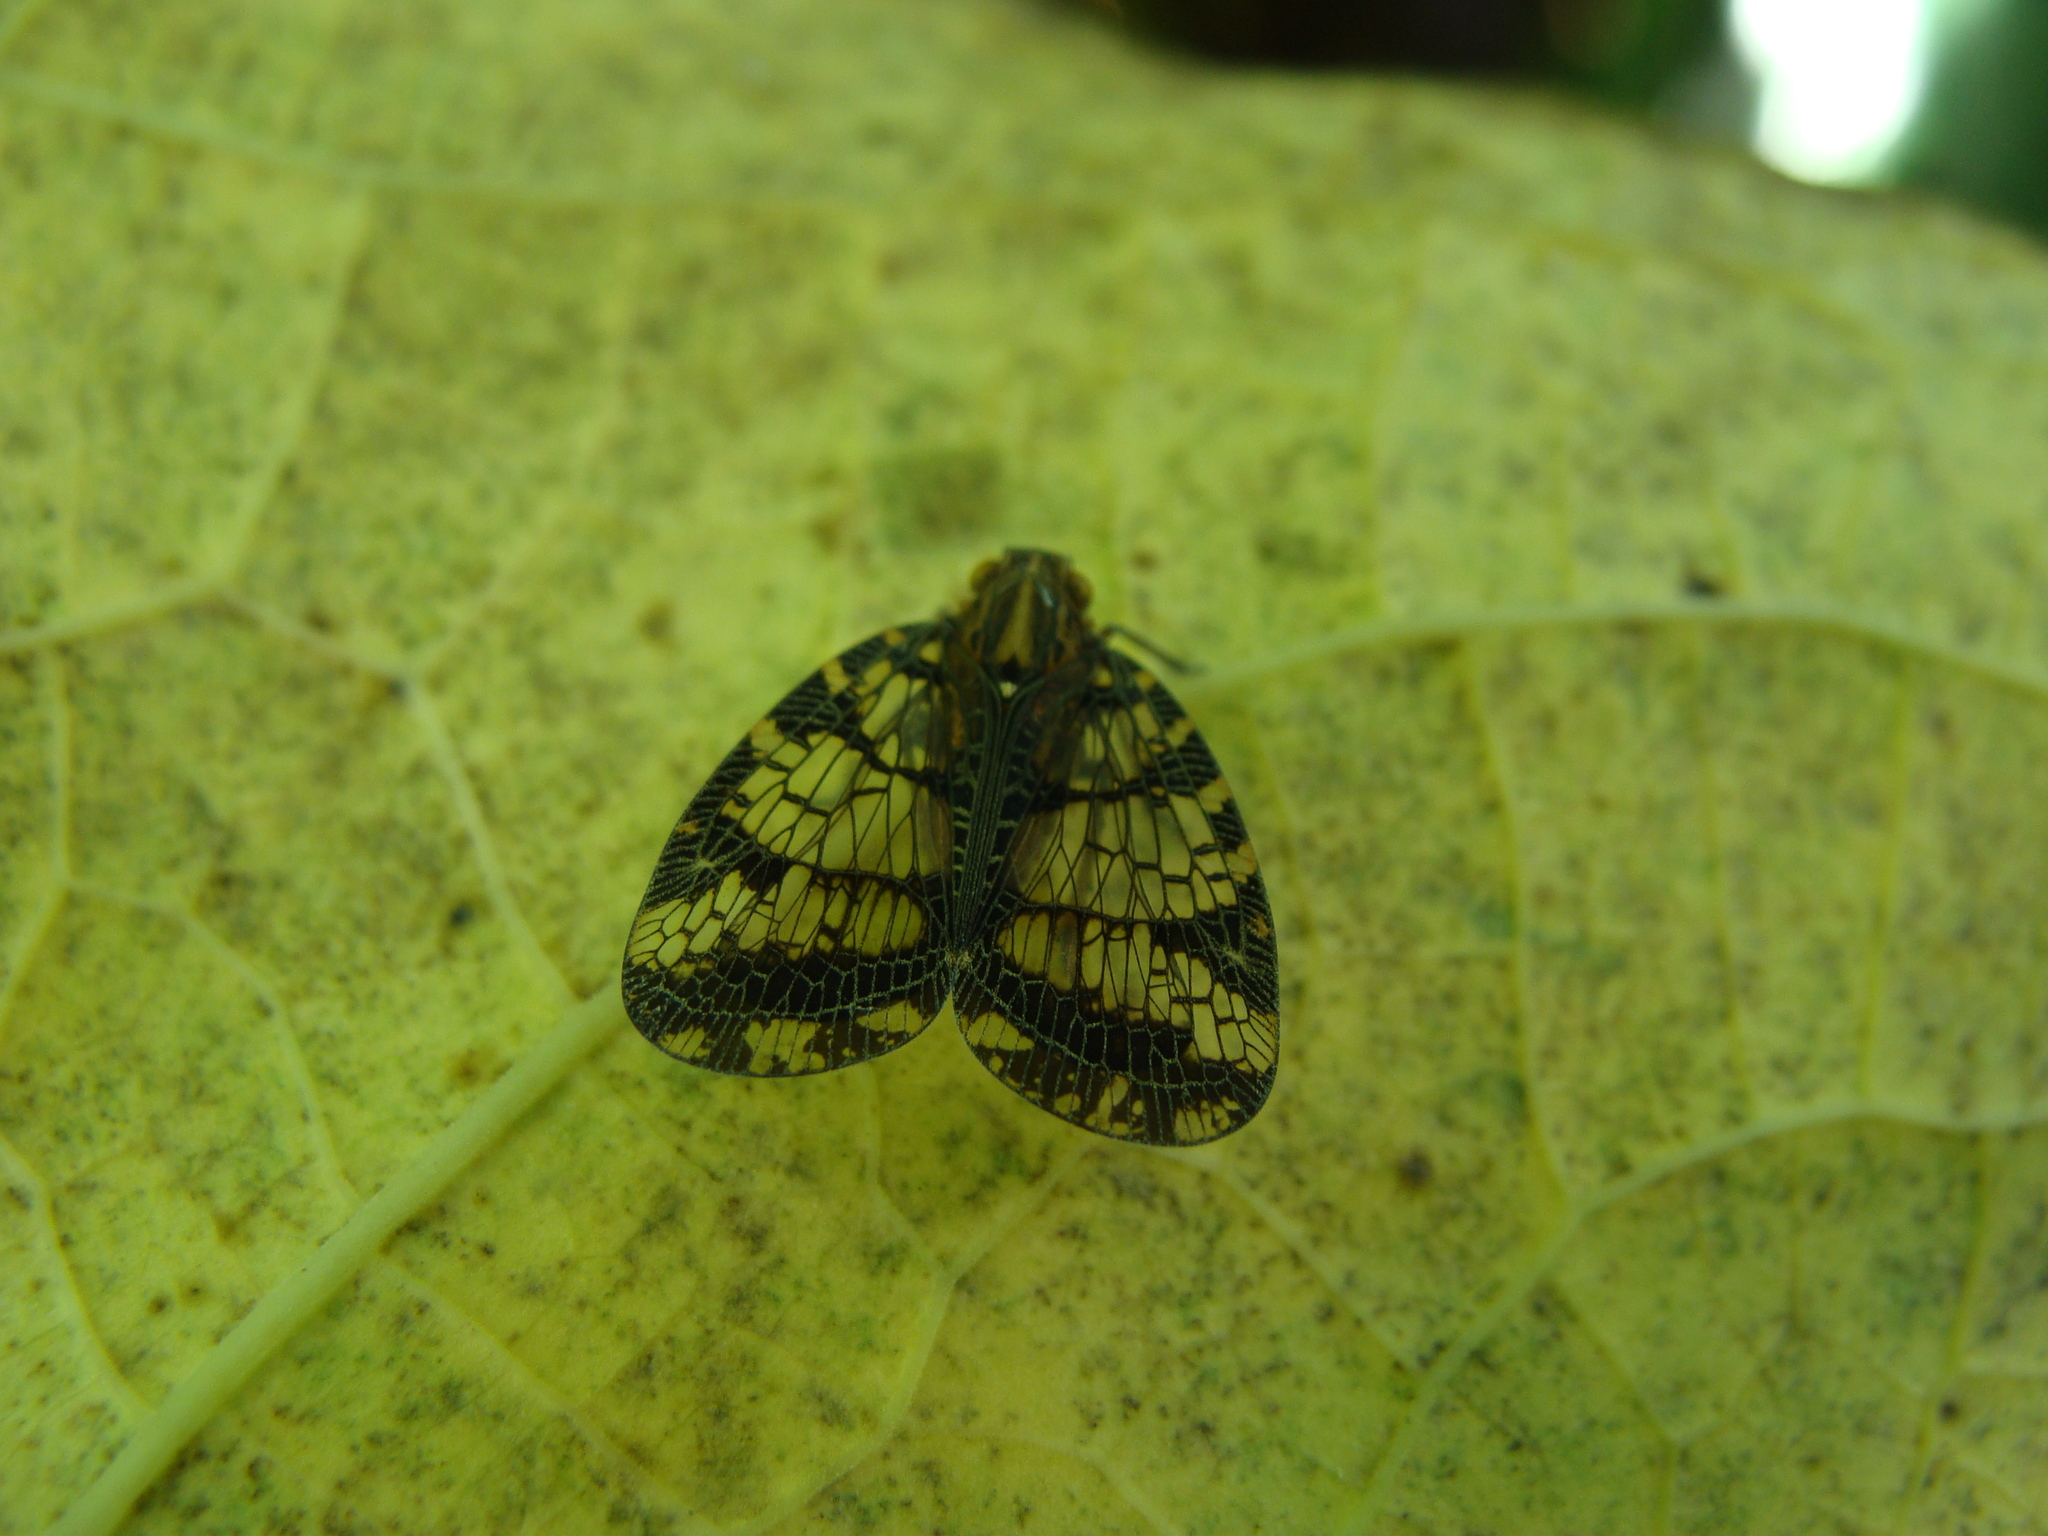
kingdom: Animalia
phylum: Arthropoda
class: Insecta
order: Hemiptera
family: Nogodinidae
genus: Biolleyana
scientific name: Biolleyana pictifrons
